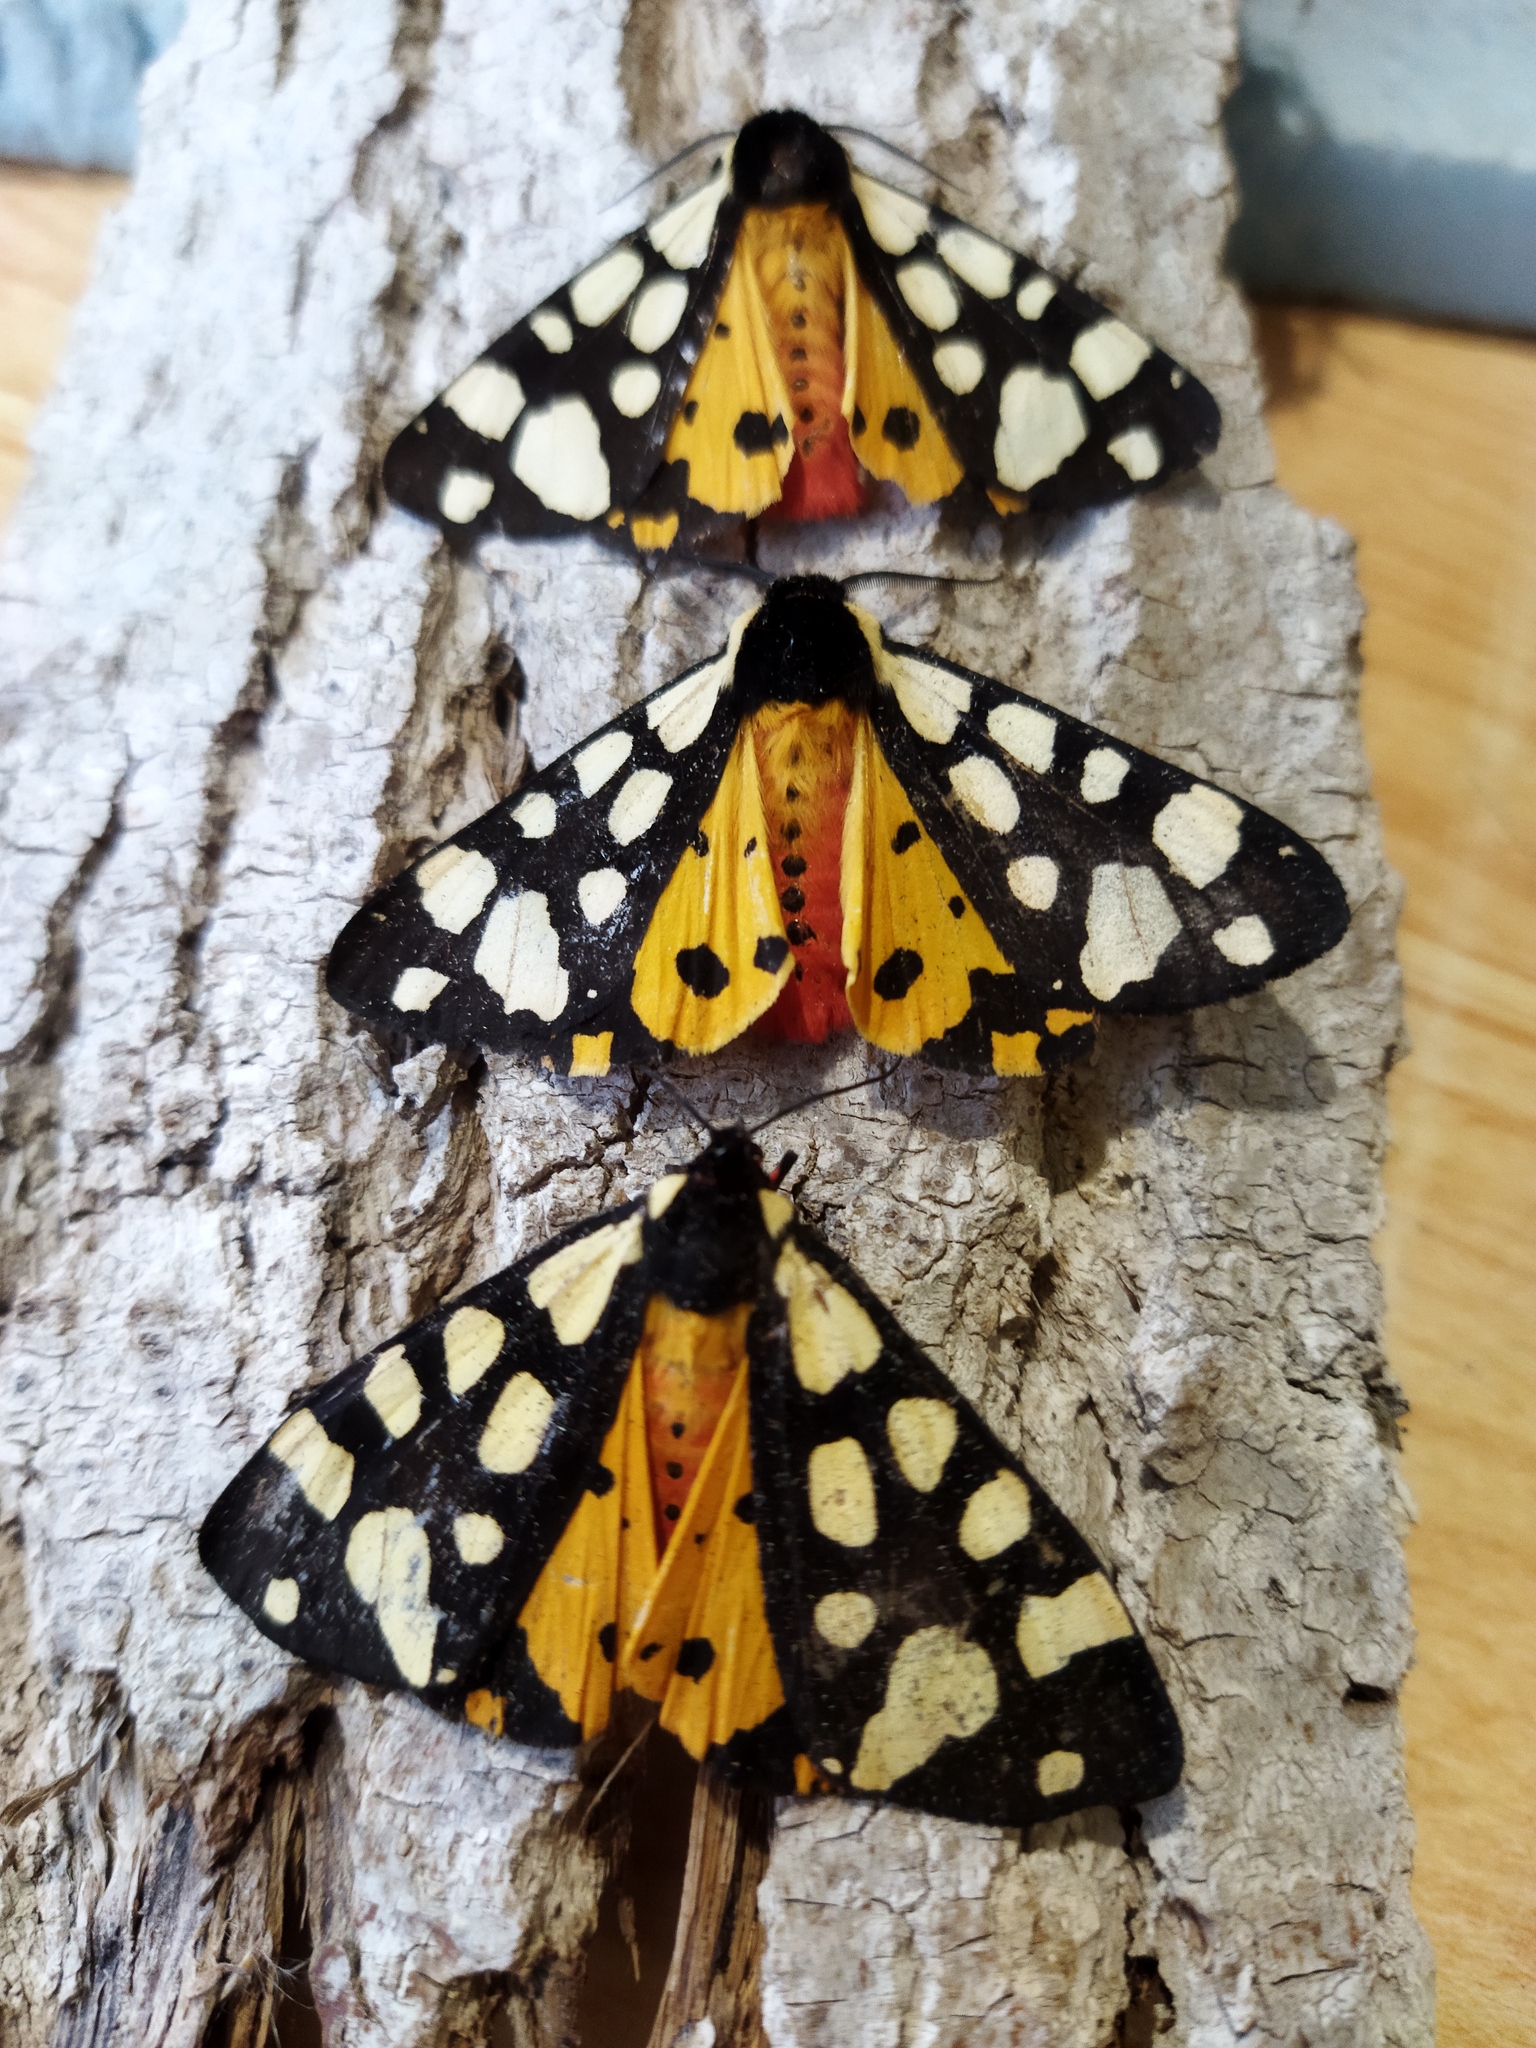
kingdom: Animalia
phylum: Arthropoda
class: Insecta
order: Lepidoptera
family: Erebidae
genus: Epicallia
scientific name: Epicallia villica
